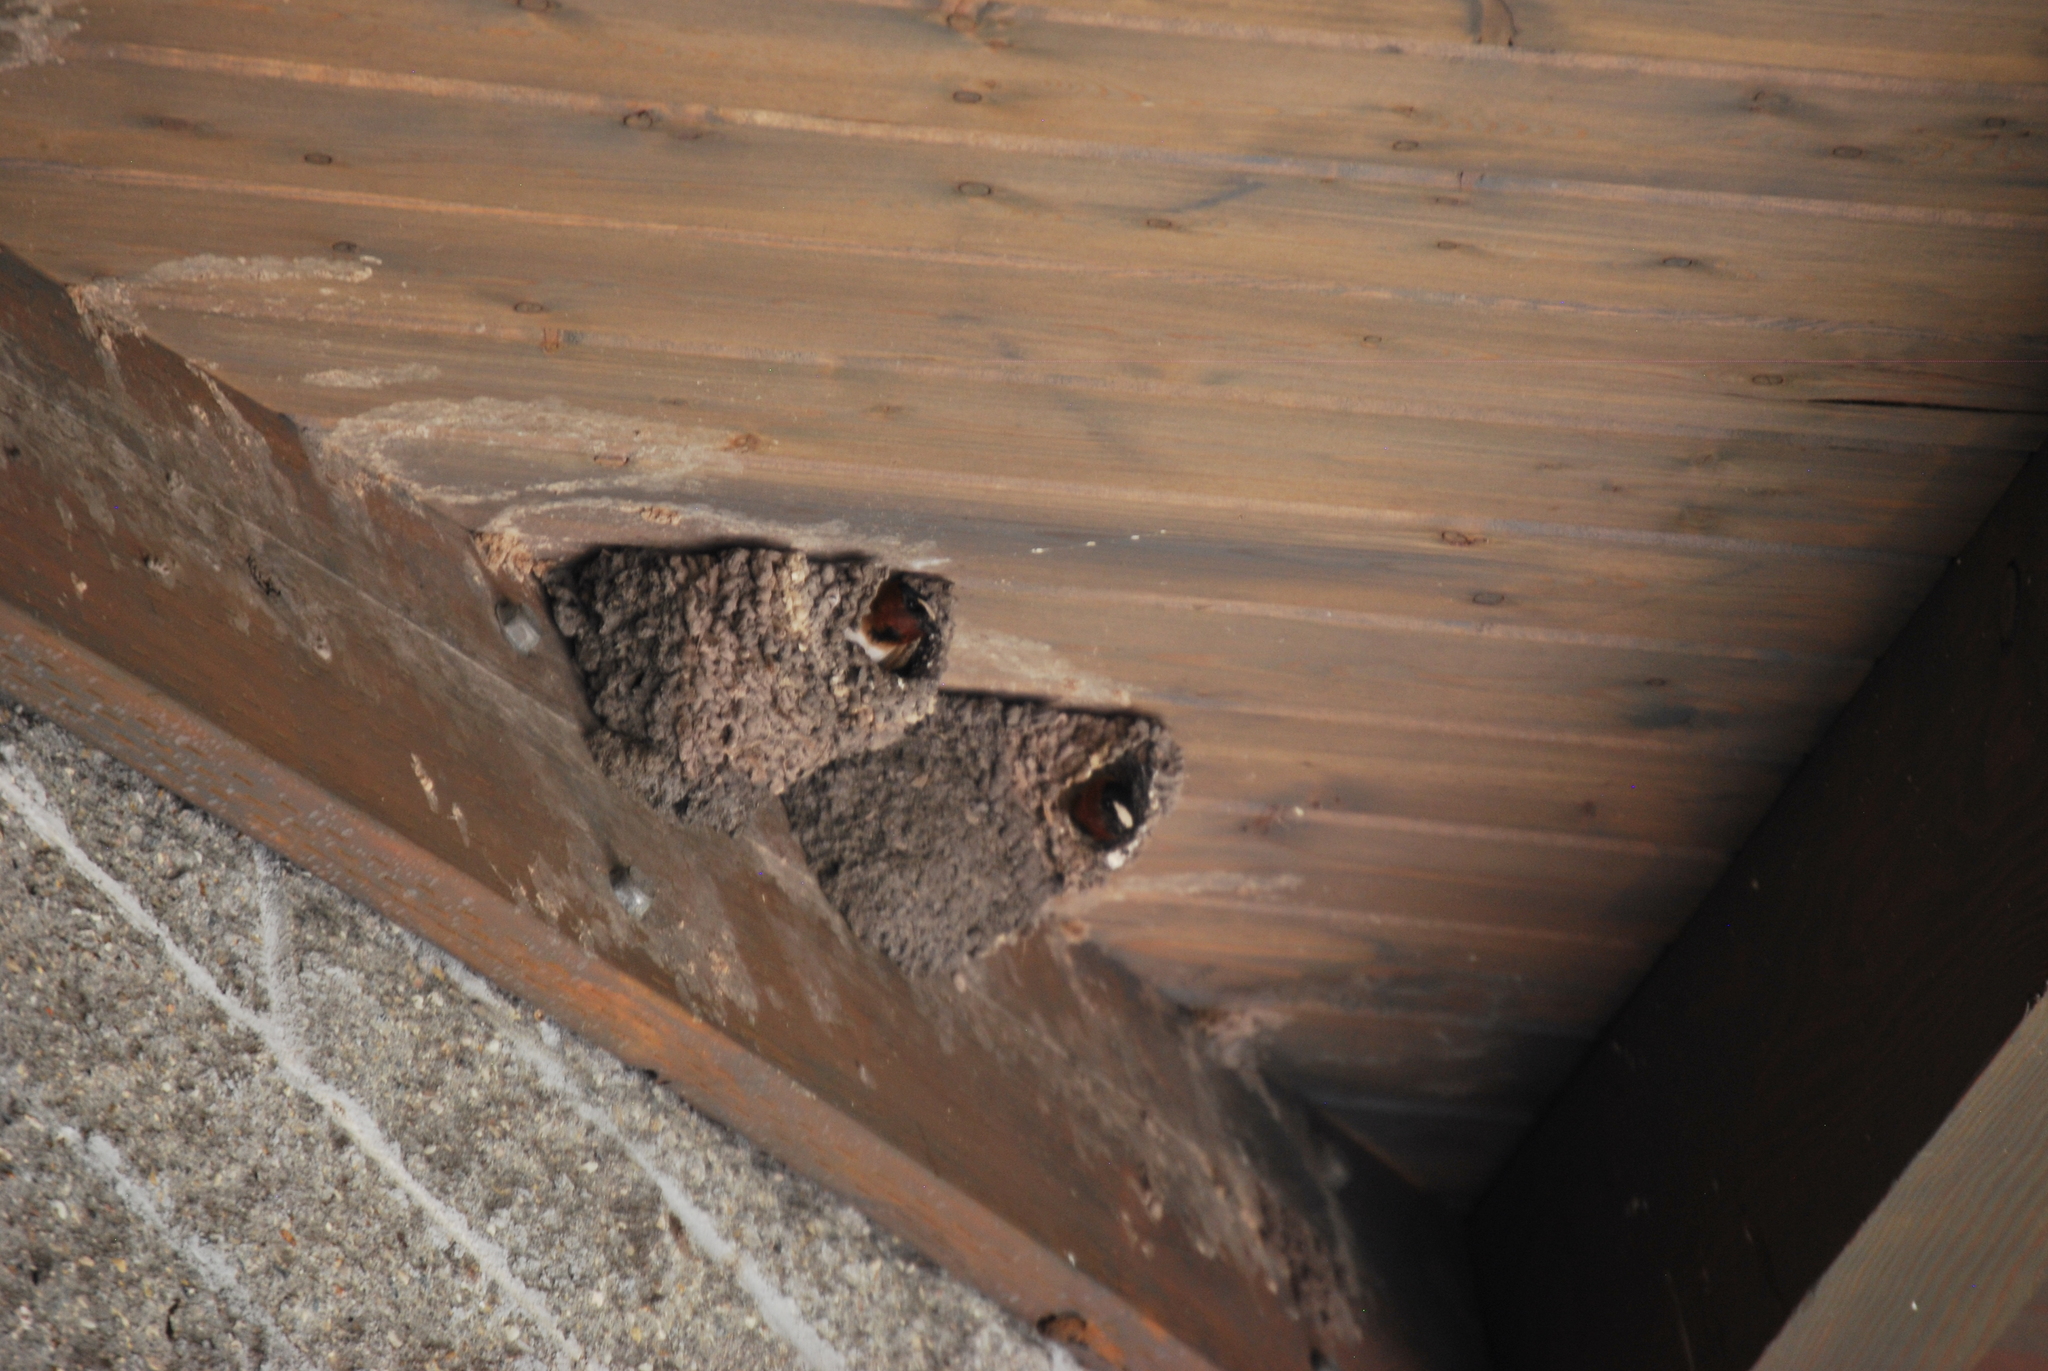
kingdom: Animalia
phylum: Chordata
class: Aves
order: Passeriformes
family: Hirundinidae
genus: Petrochelidon
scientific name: Petrochelidon pyrrhonota
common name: American cliff swallow
